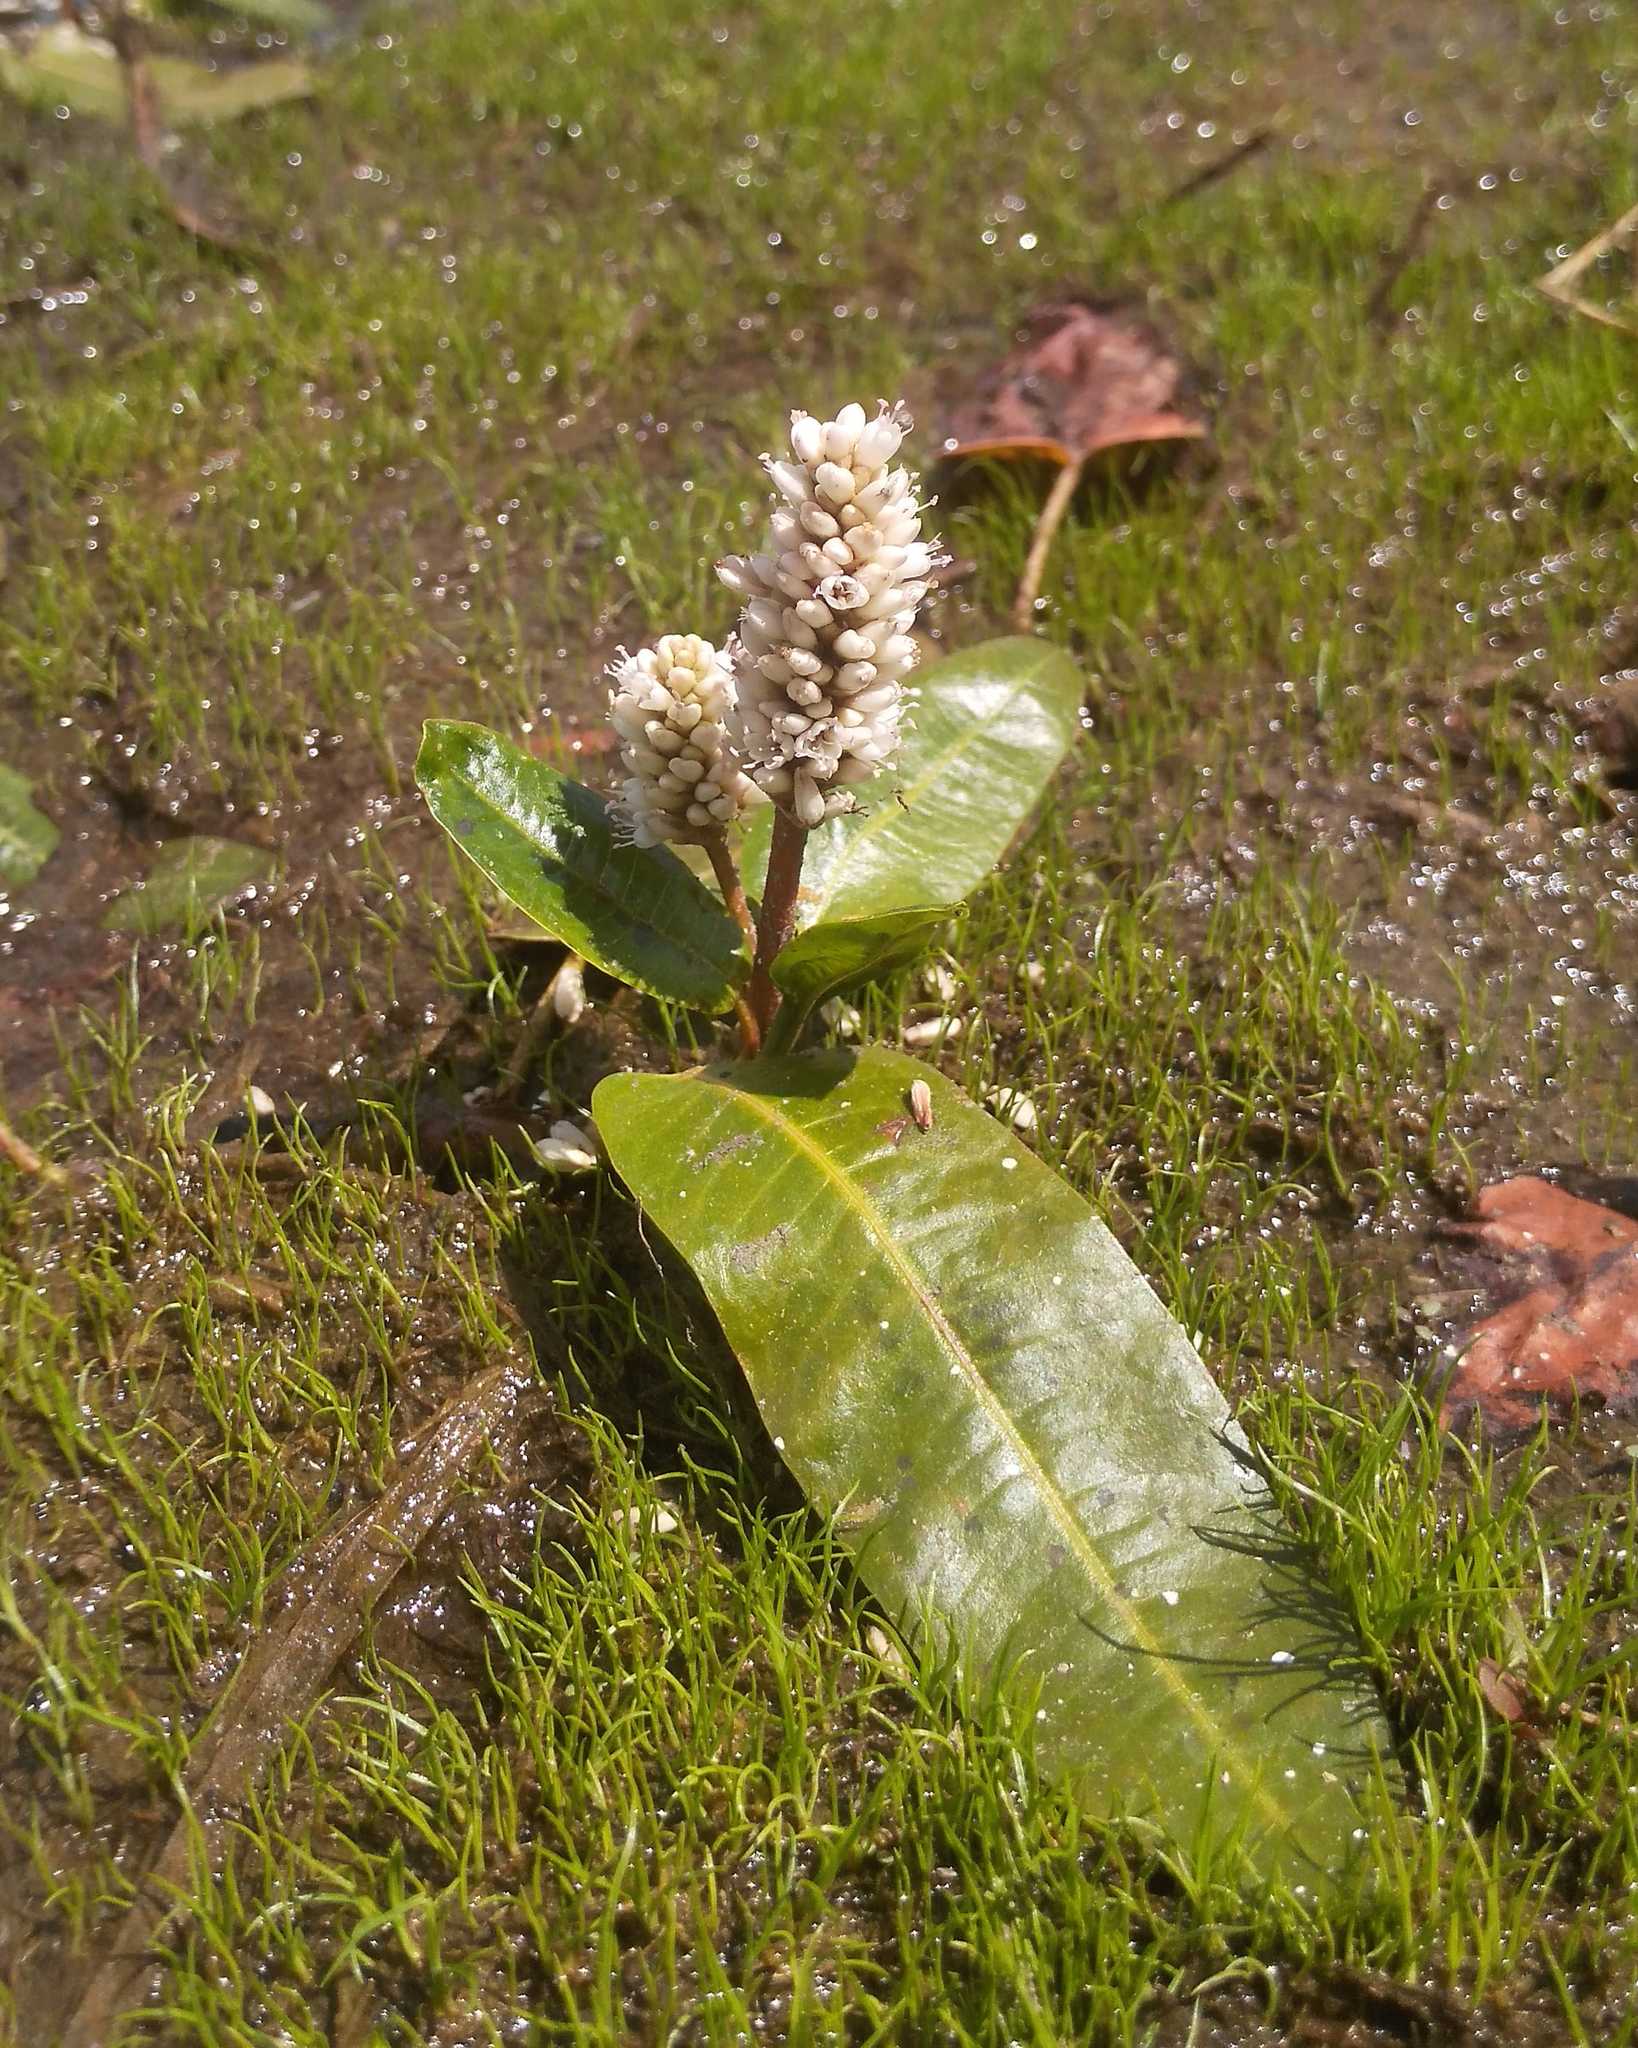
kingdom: Plantae
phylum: Tracheophyta
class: Magnoliopsida
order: Caryophyllales
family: Polygonaceae
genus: Persicaria
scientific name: Persicaria amphibia
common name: Amphibious bistort
